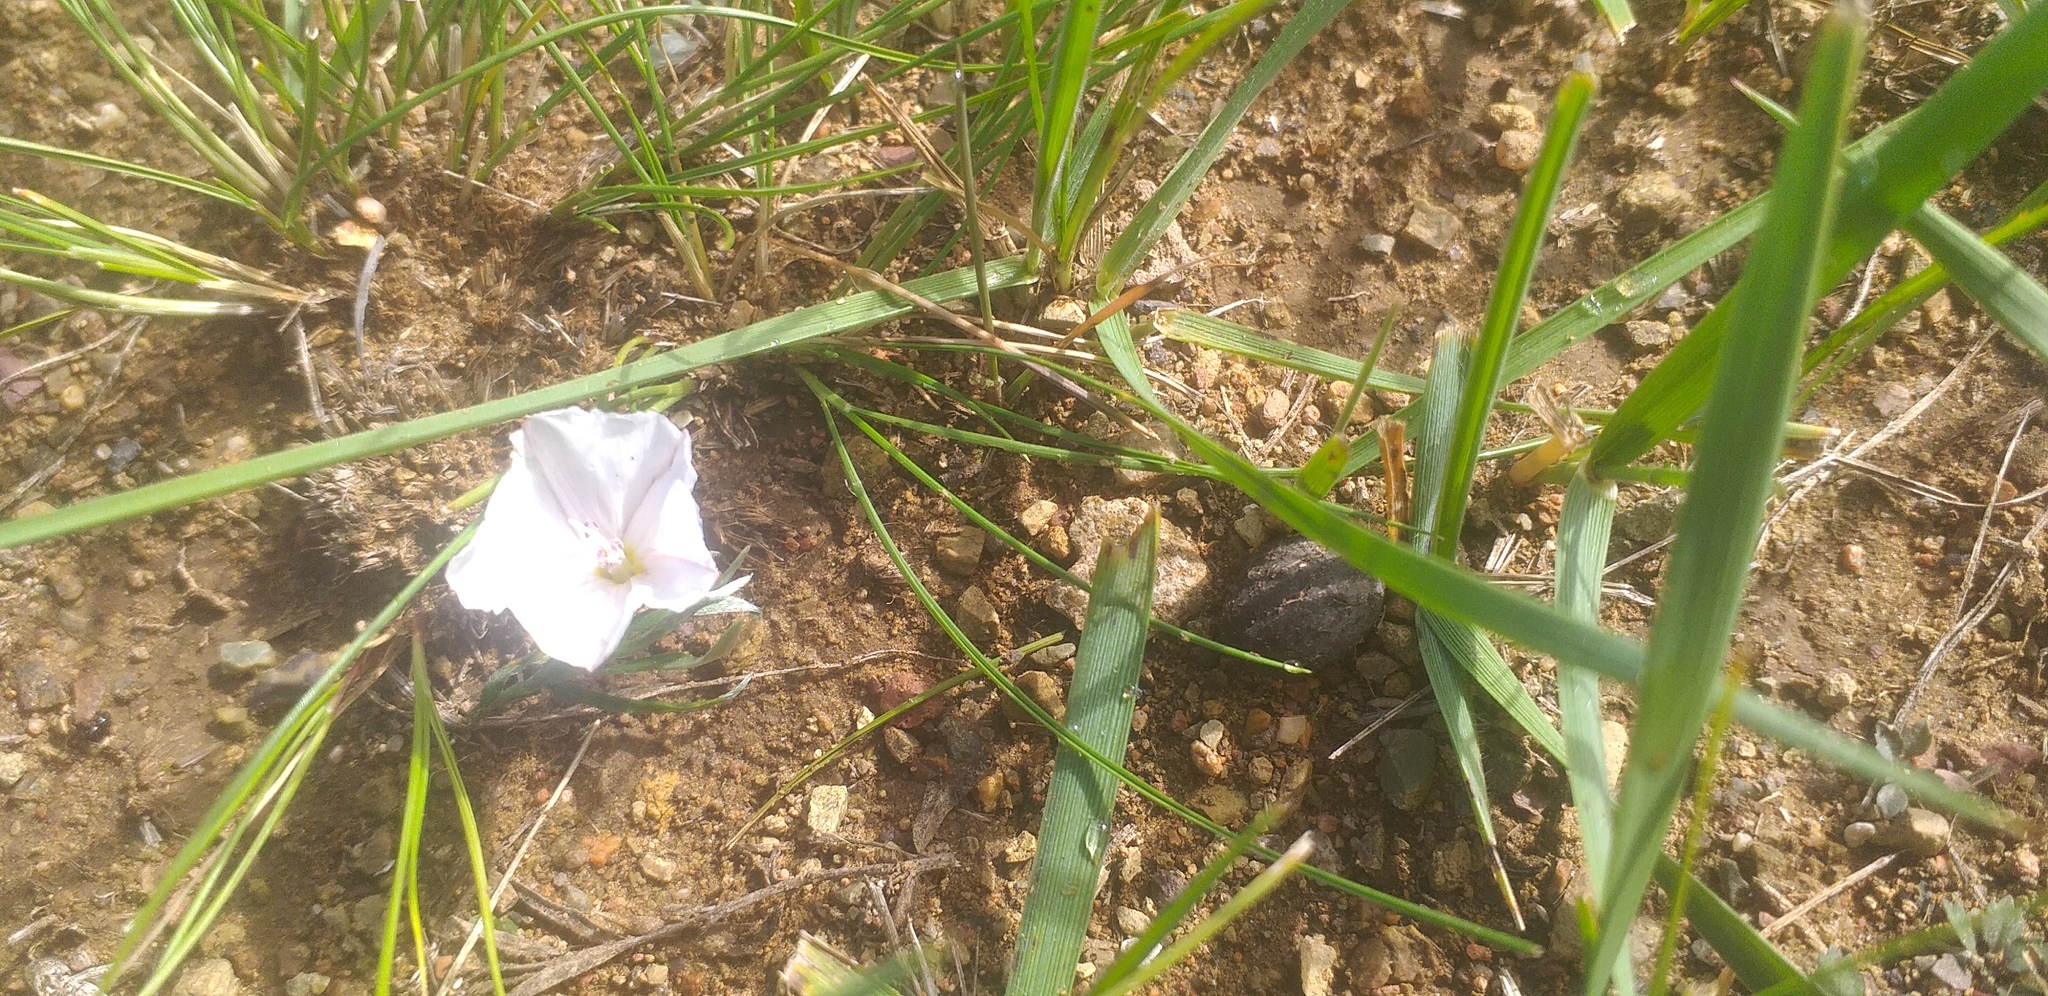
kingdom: Plantae
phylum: Tracheophyta
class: Magnoliopsida
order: Solanales
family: Convolvulaceae
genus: Convolvulus
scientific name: Convolvulus ammannii
